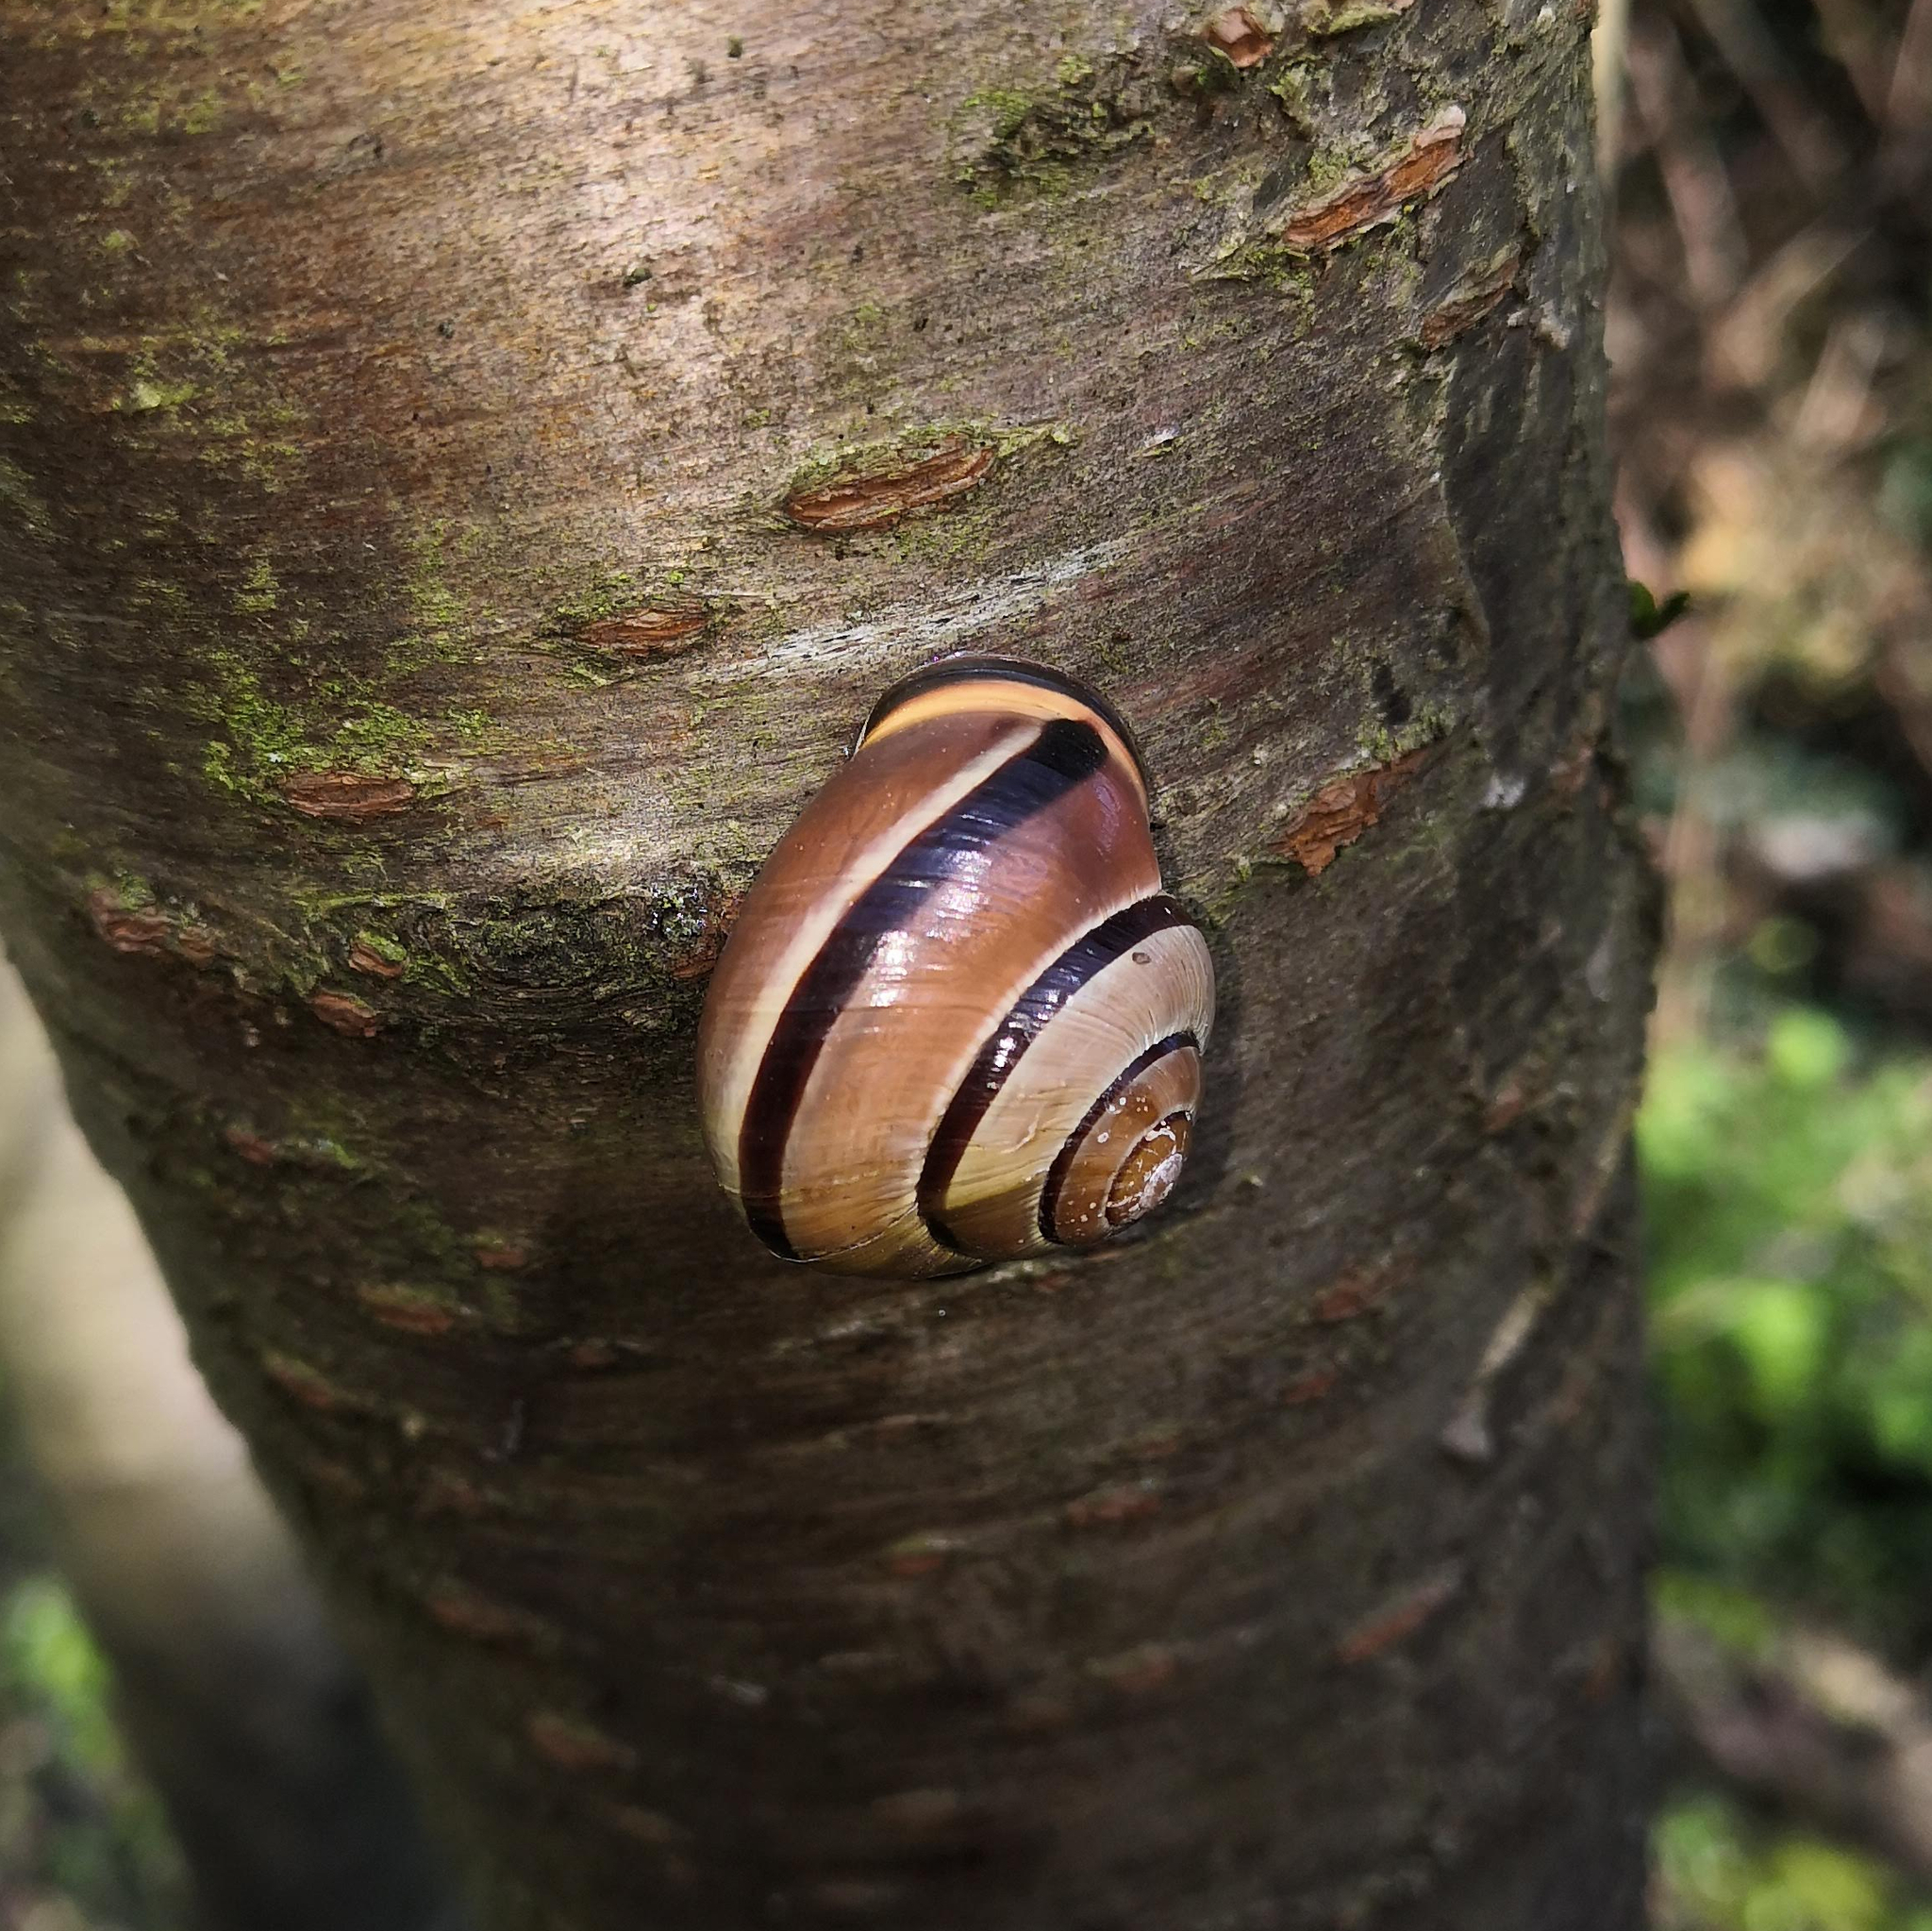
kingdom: Animalia
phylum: Mollusca
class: Gastropoda
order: Stylommatophora
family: Helicidae
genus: Cepaea
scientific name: Cepaea nemoralis
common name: Grovesnail
